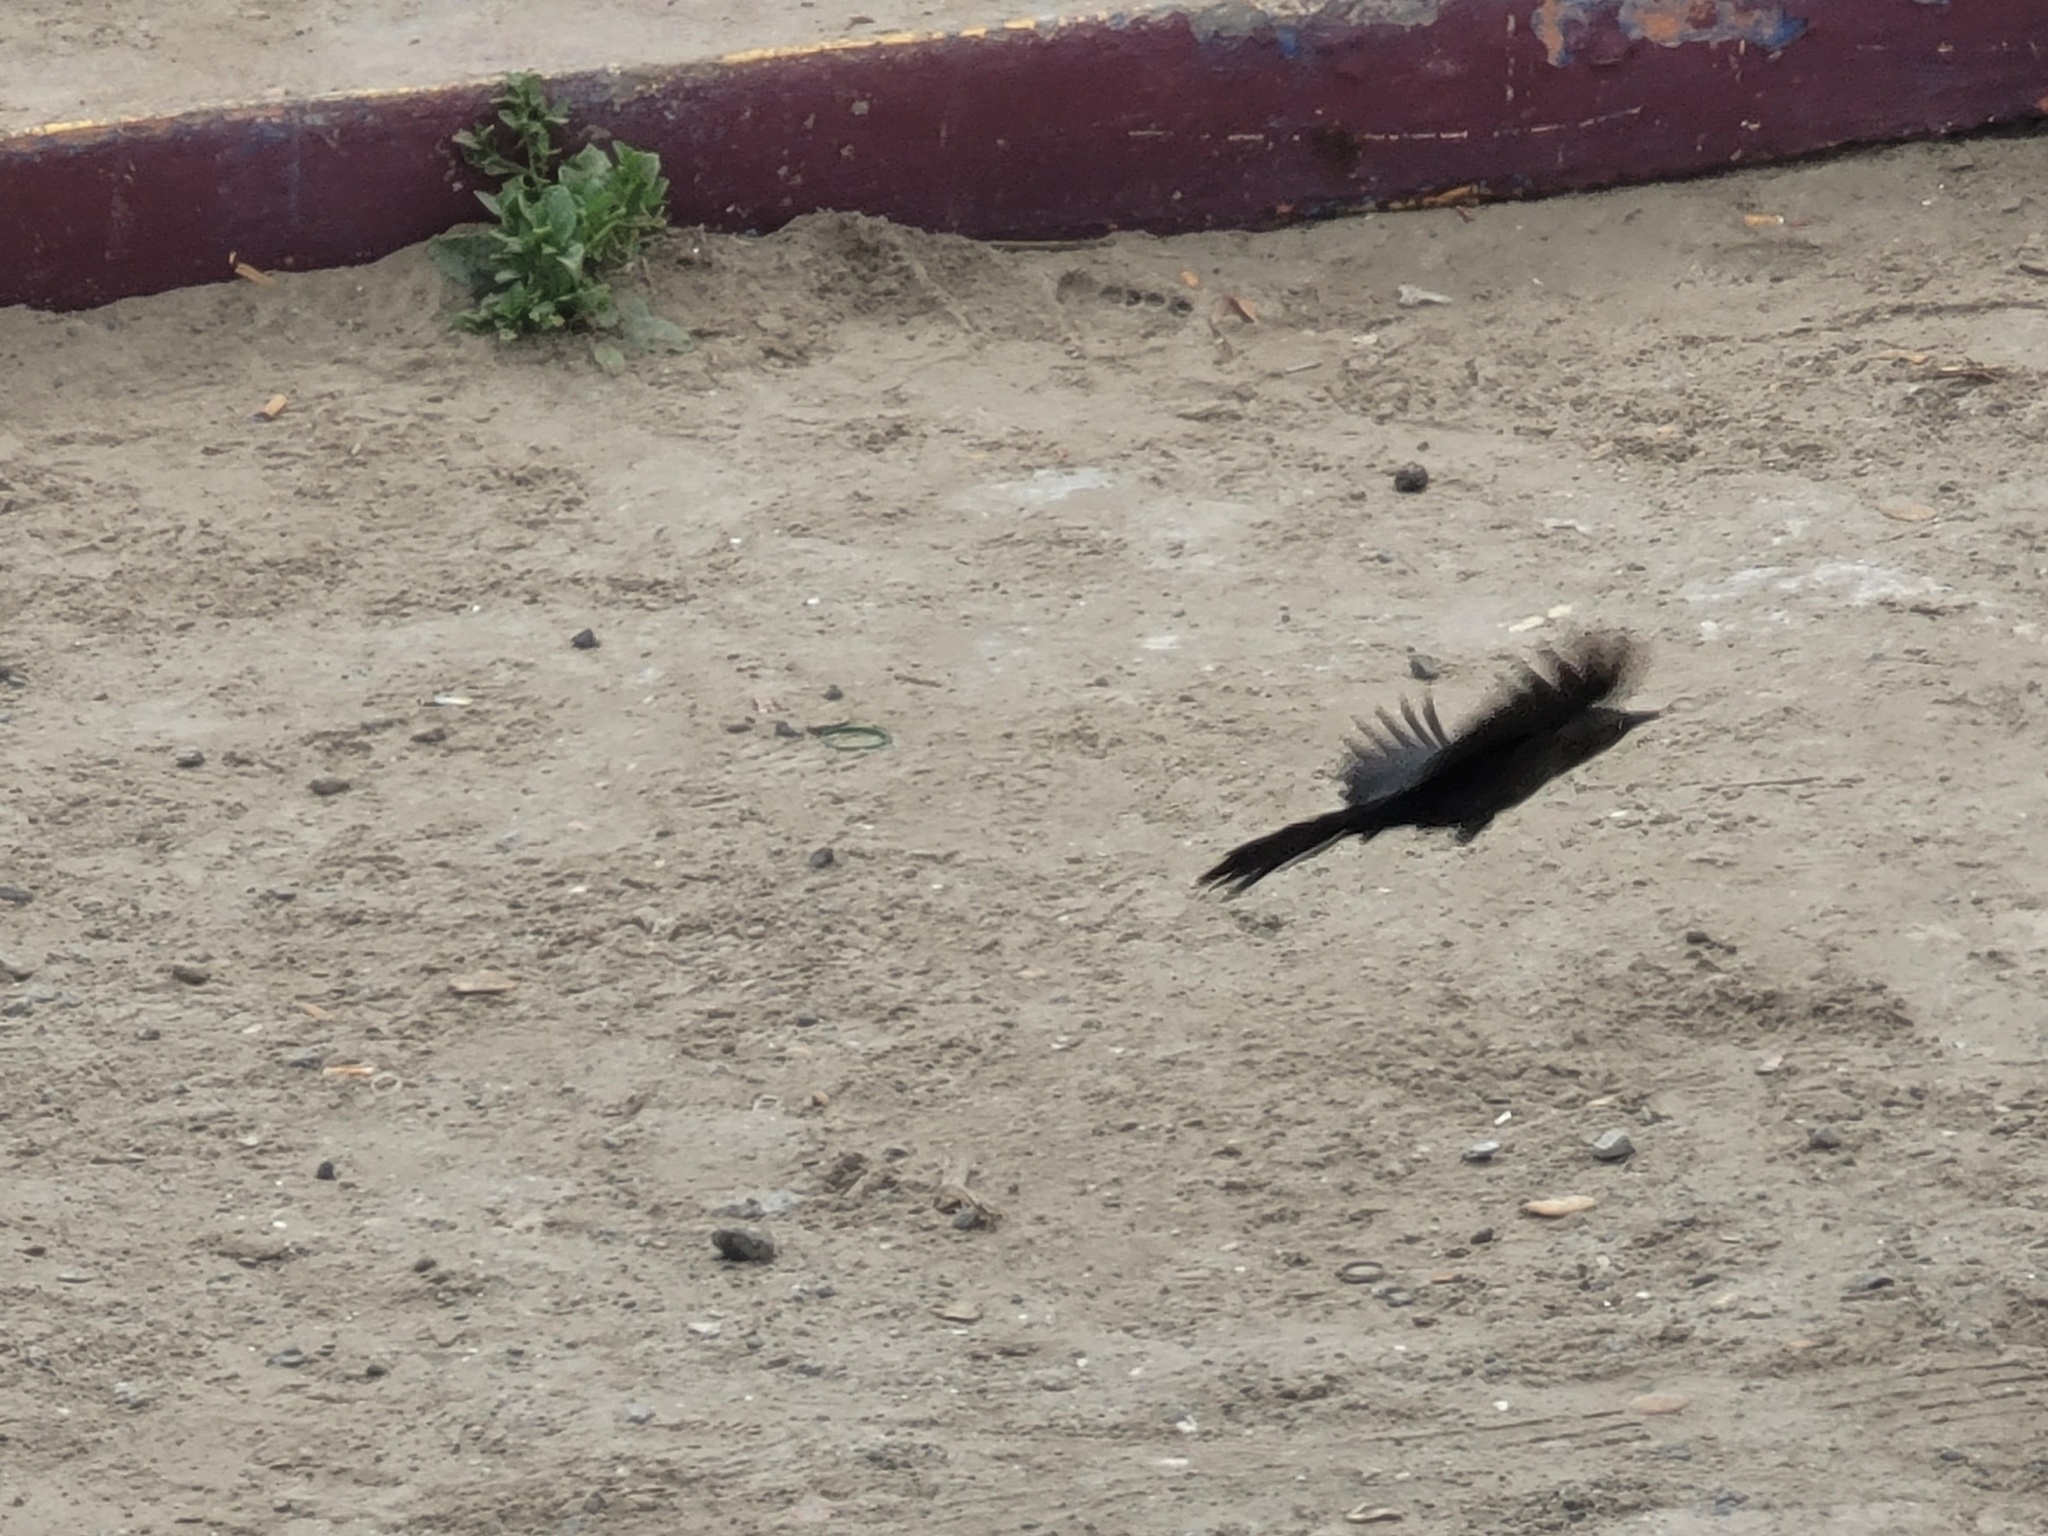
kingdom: Animalia
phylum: Chordata
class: Aves
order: Passeriformes
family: Icteridae
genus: Quiscalus
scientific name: Quiscalus mexicanus
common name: Great-tailed grackle
